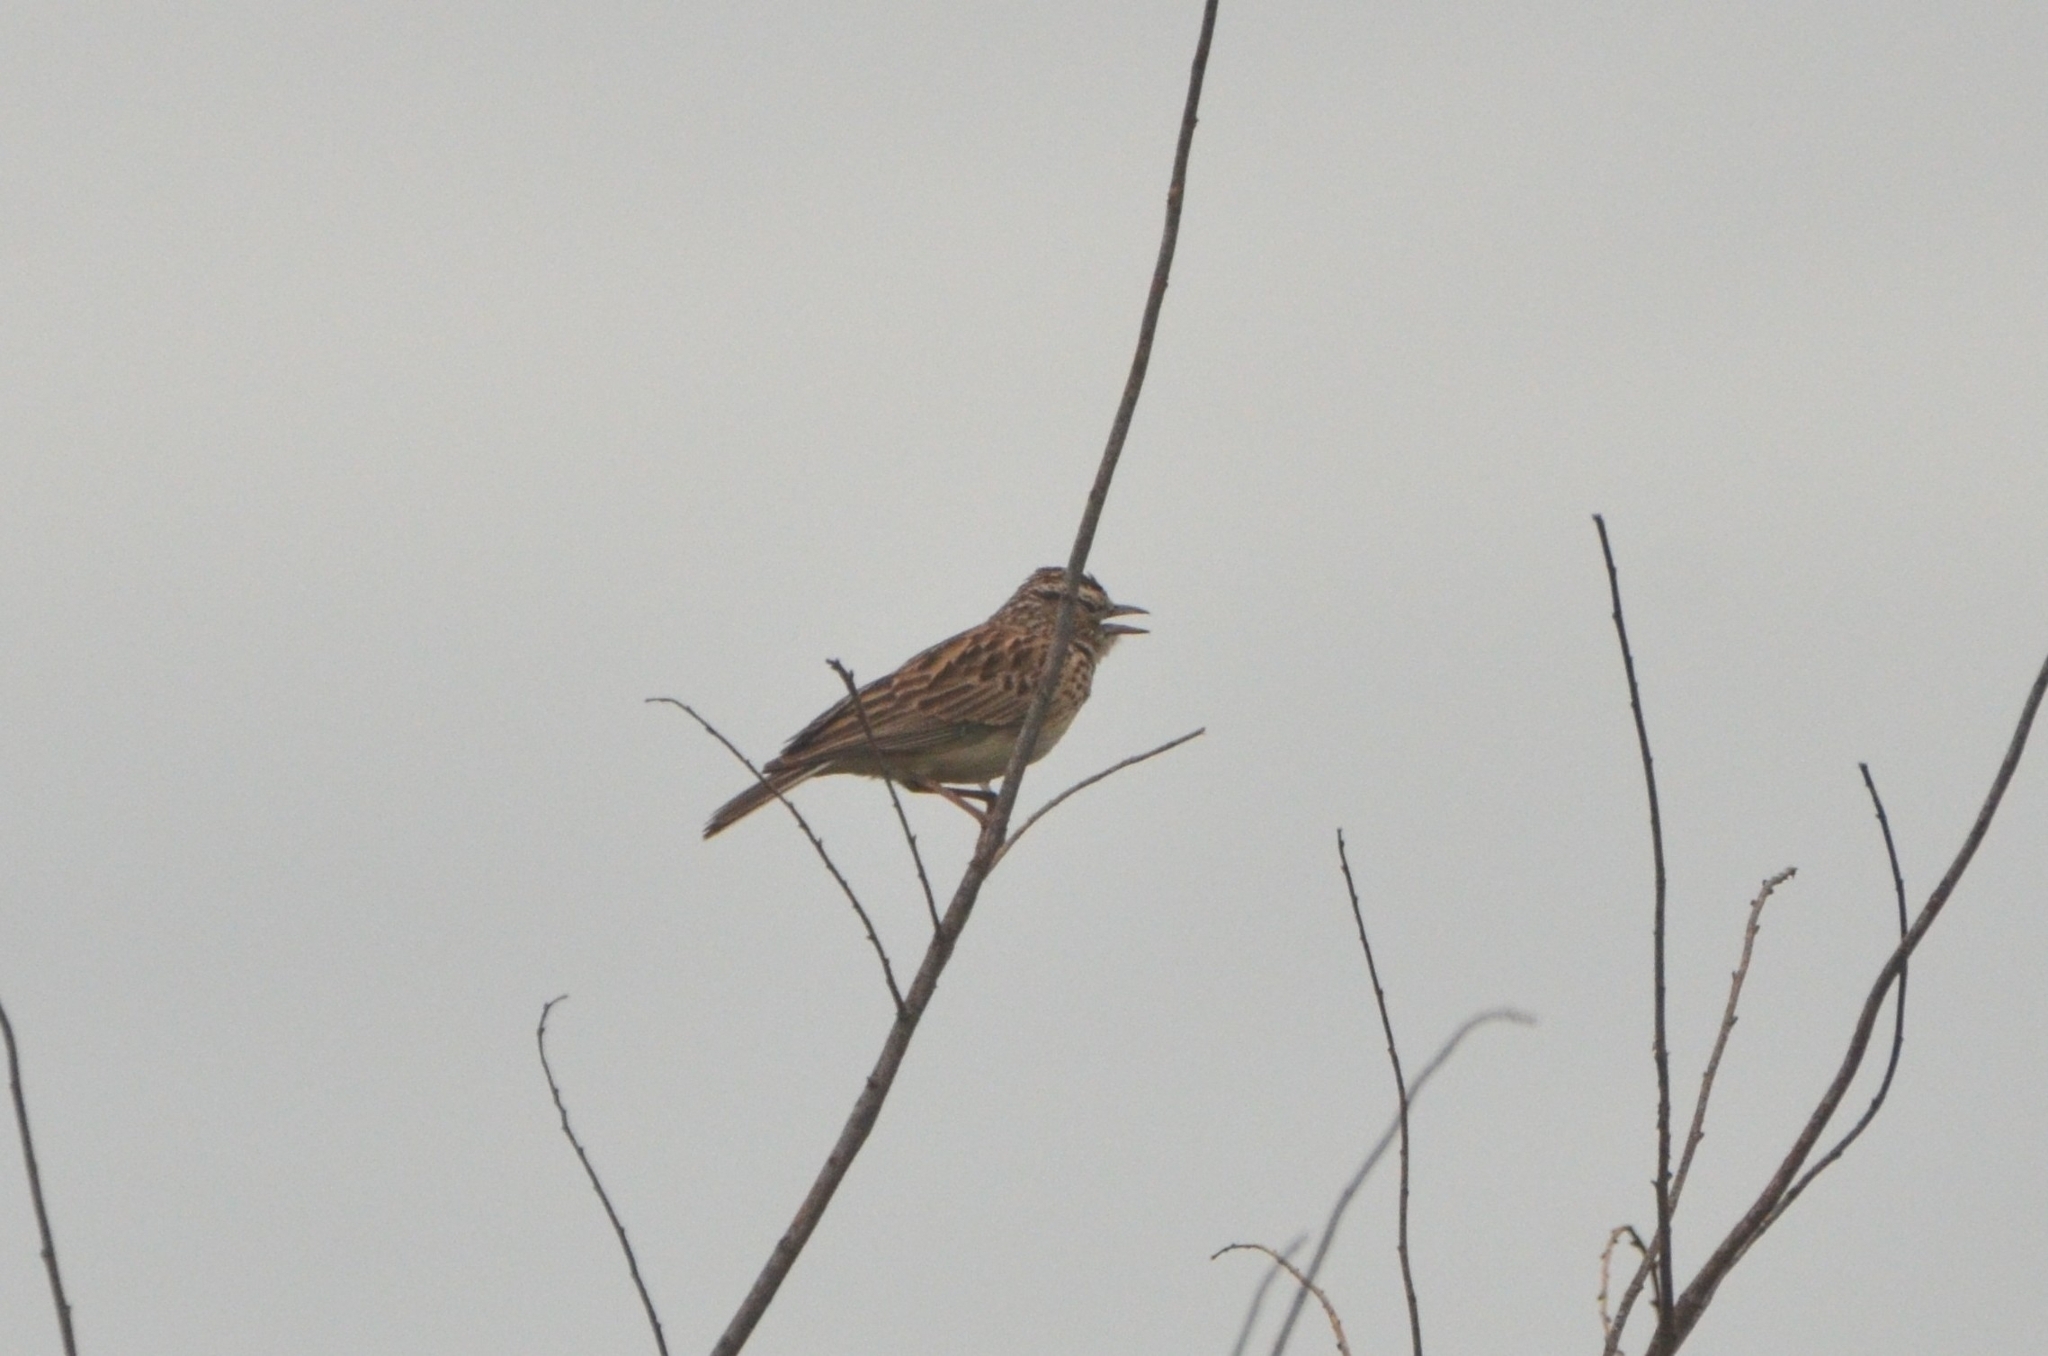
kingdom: Animalia
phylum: Chordata
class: Aves
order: Passeriformes
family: Alaudidae
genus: Calendulauda
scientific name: Calendulauda sabota
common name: Sabota lark
